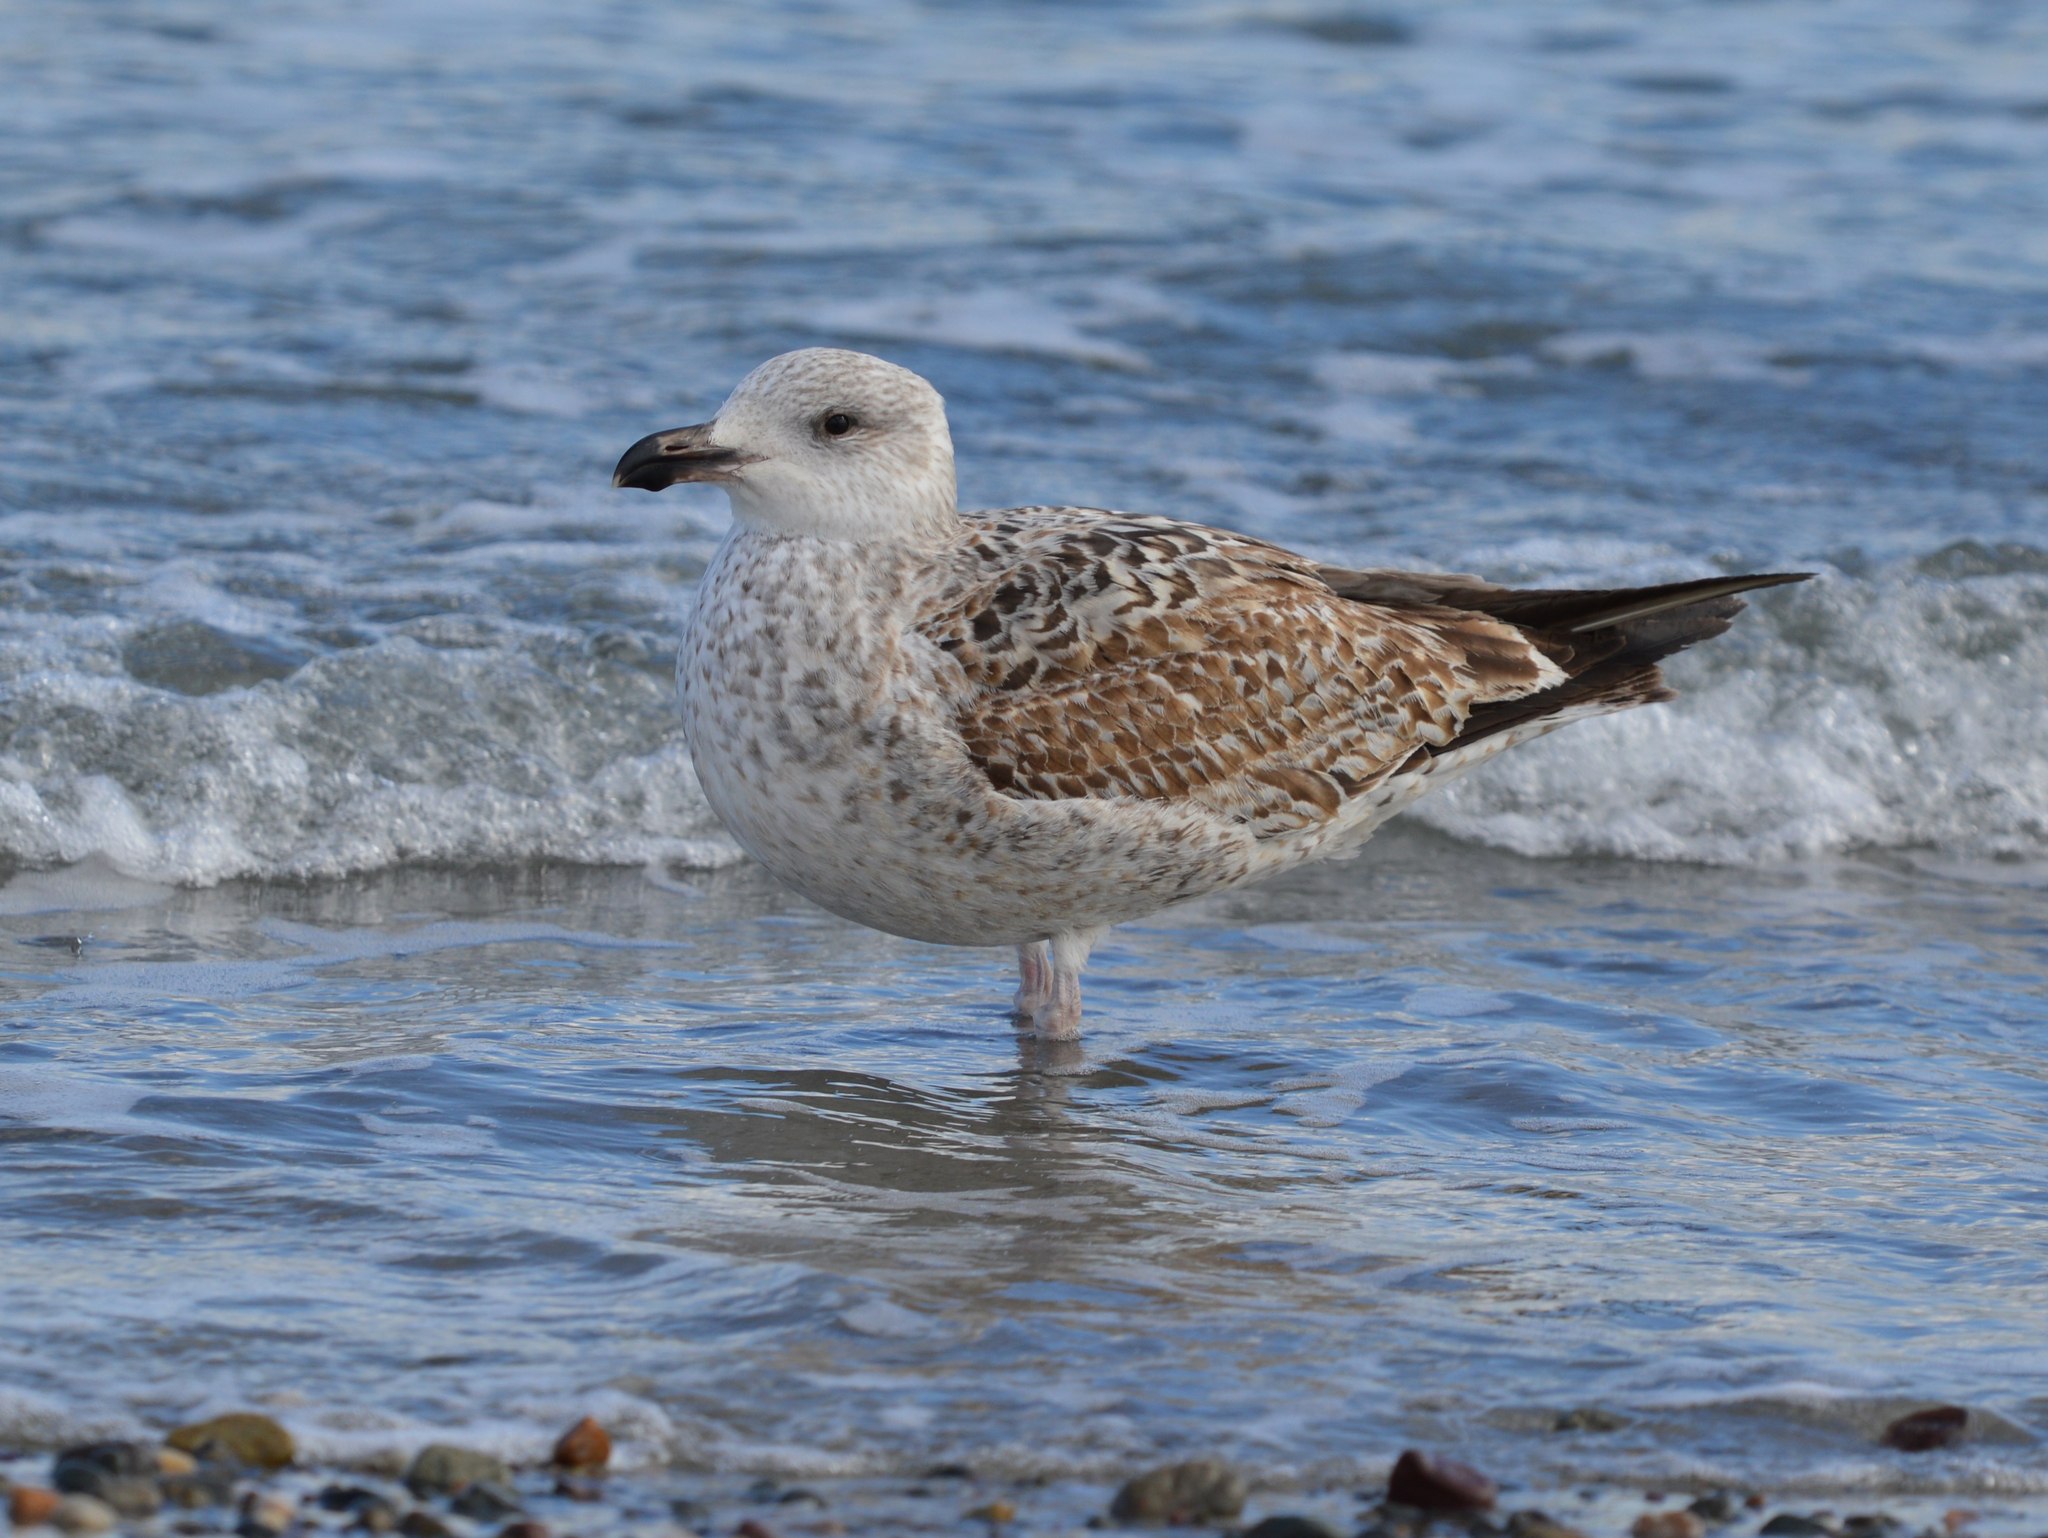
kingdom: Animalia
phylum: Chordata
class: Aves
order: Charadriiformes
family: Laridae
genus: Larus
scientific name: Larus marinus
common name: Great black-backed gull
